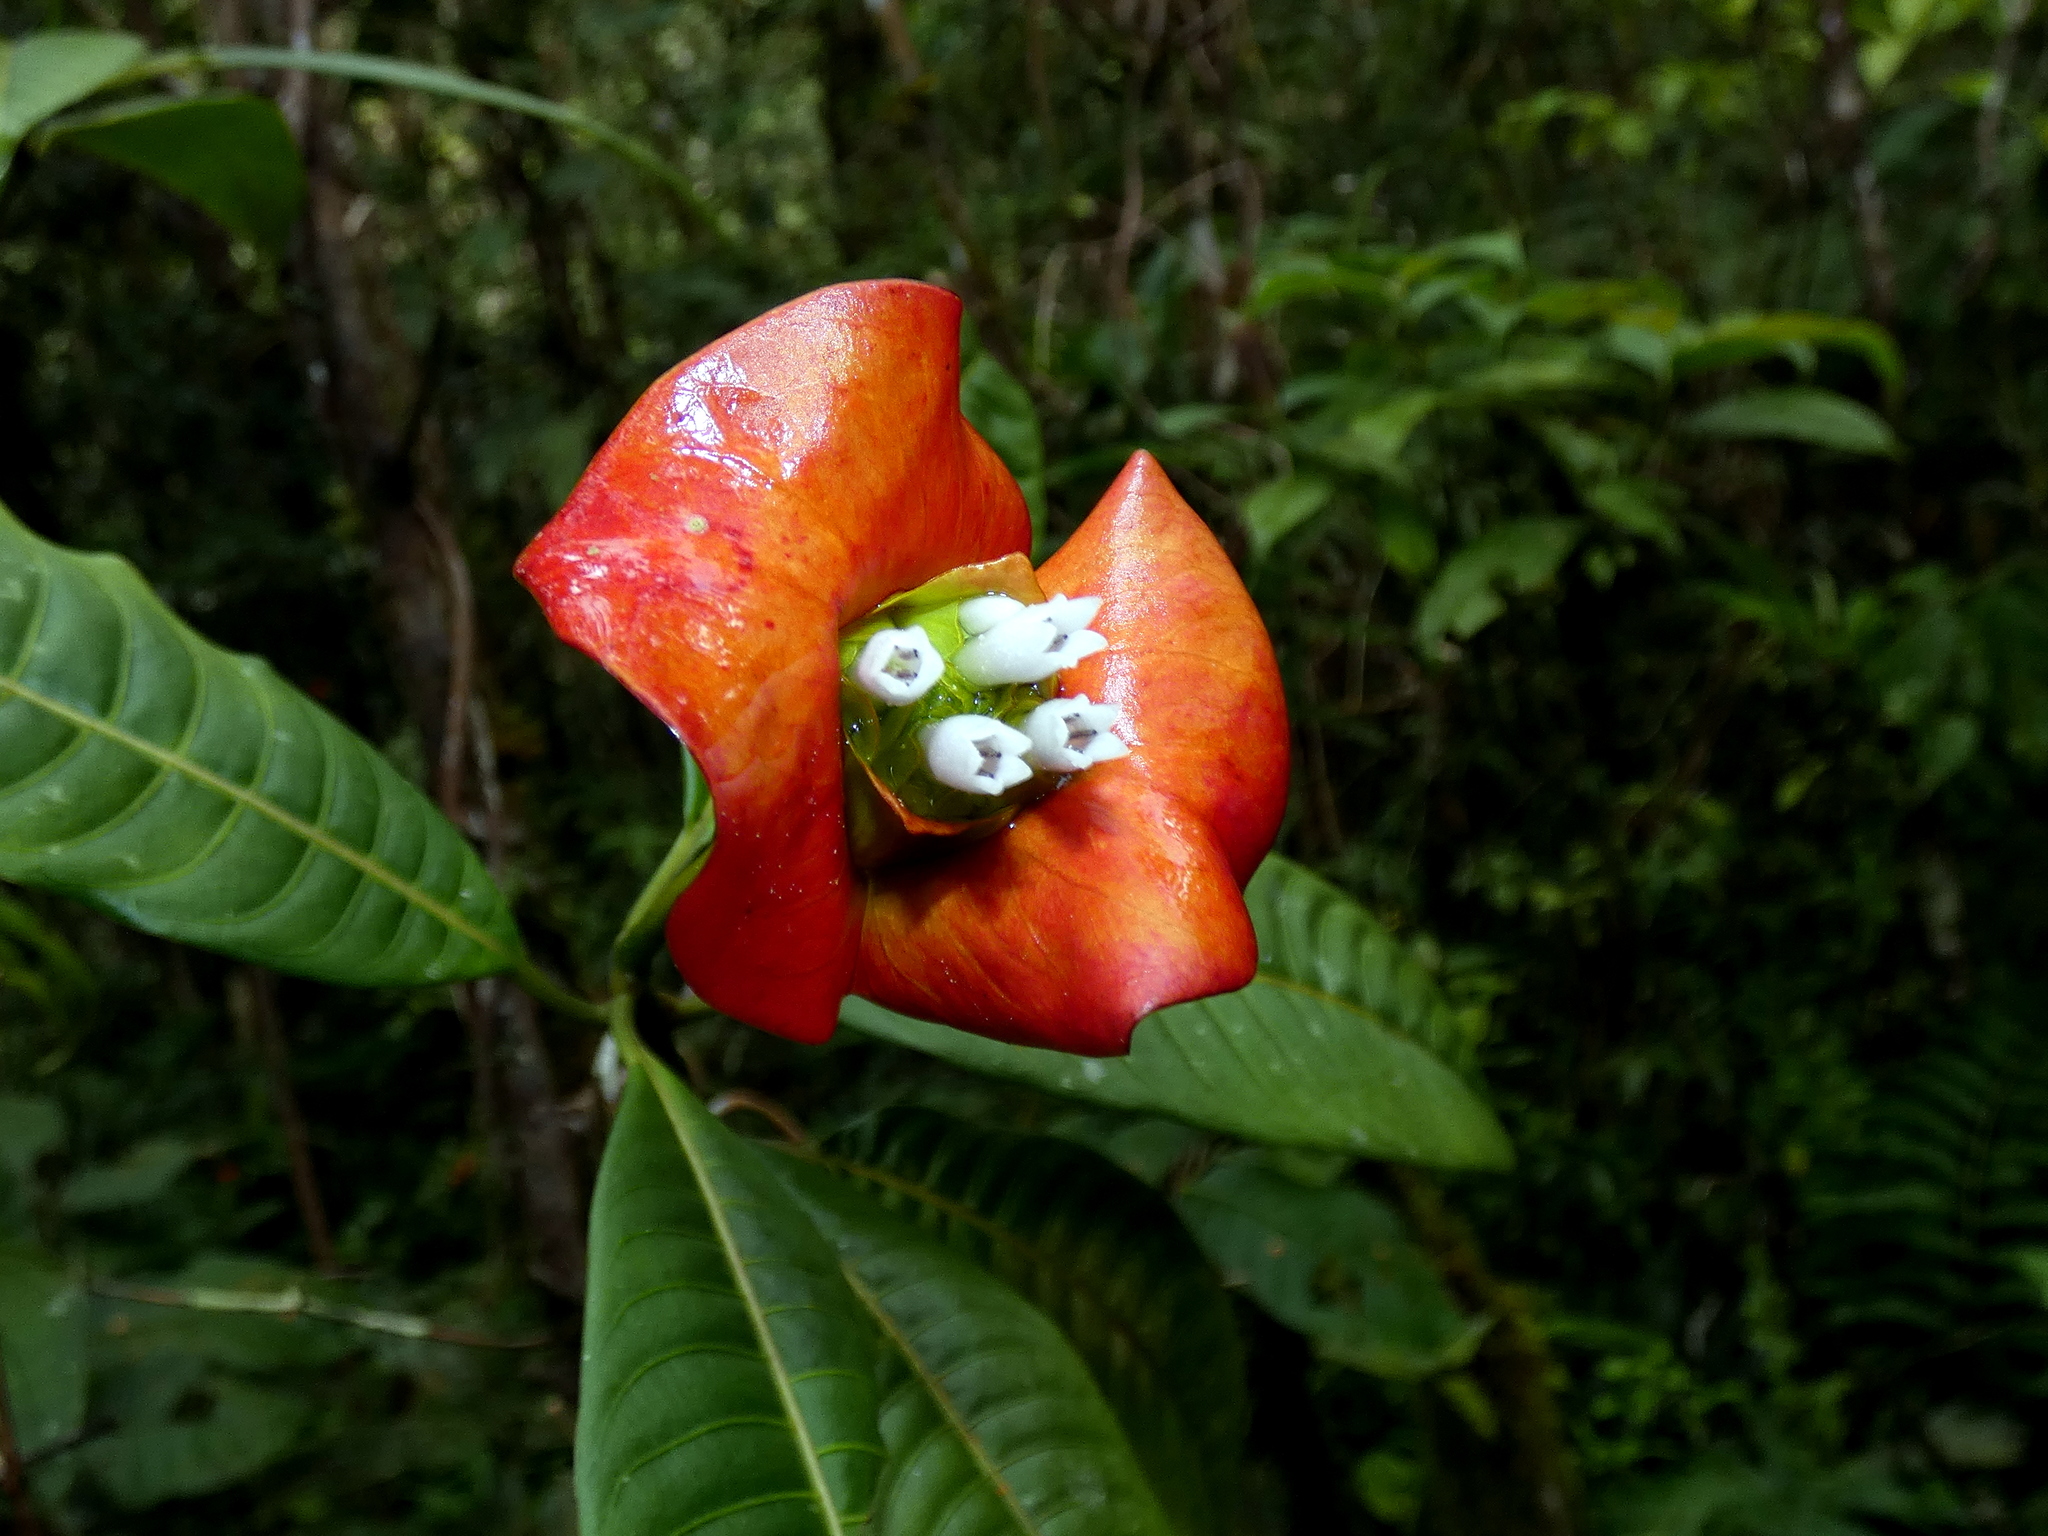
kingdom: Plantae
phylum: Tracheophyta
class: Magnoliopsida
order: Gentianales
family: Rubiaceae
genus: Palicourea
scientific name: Palicourea elata
